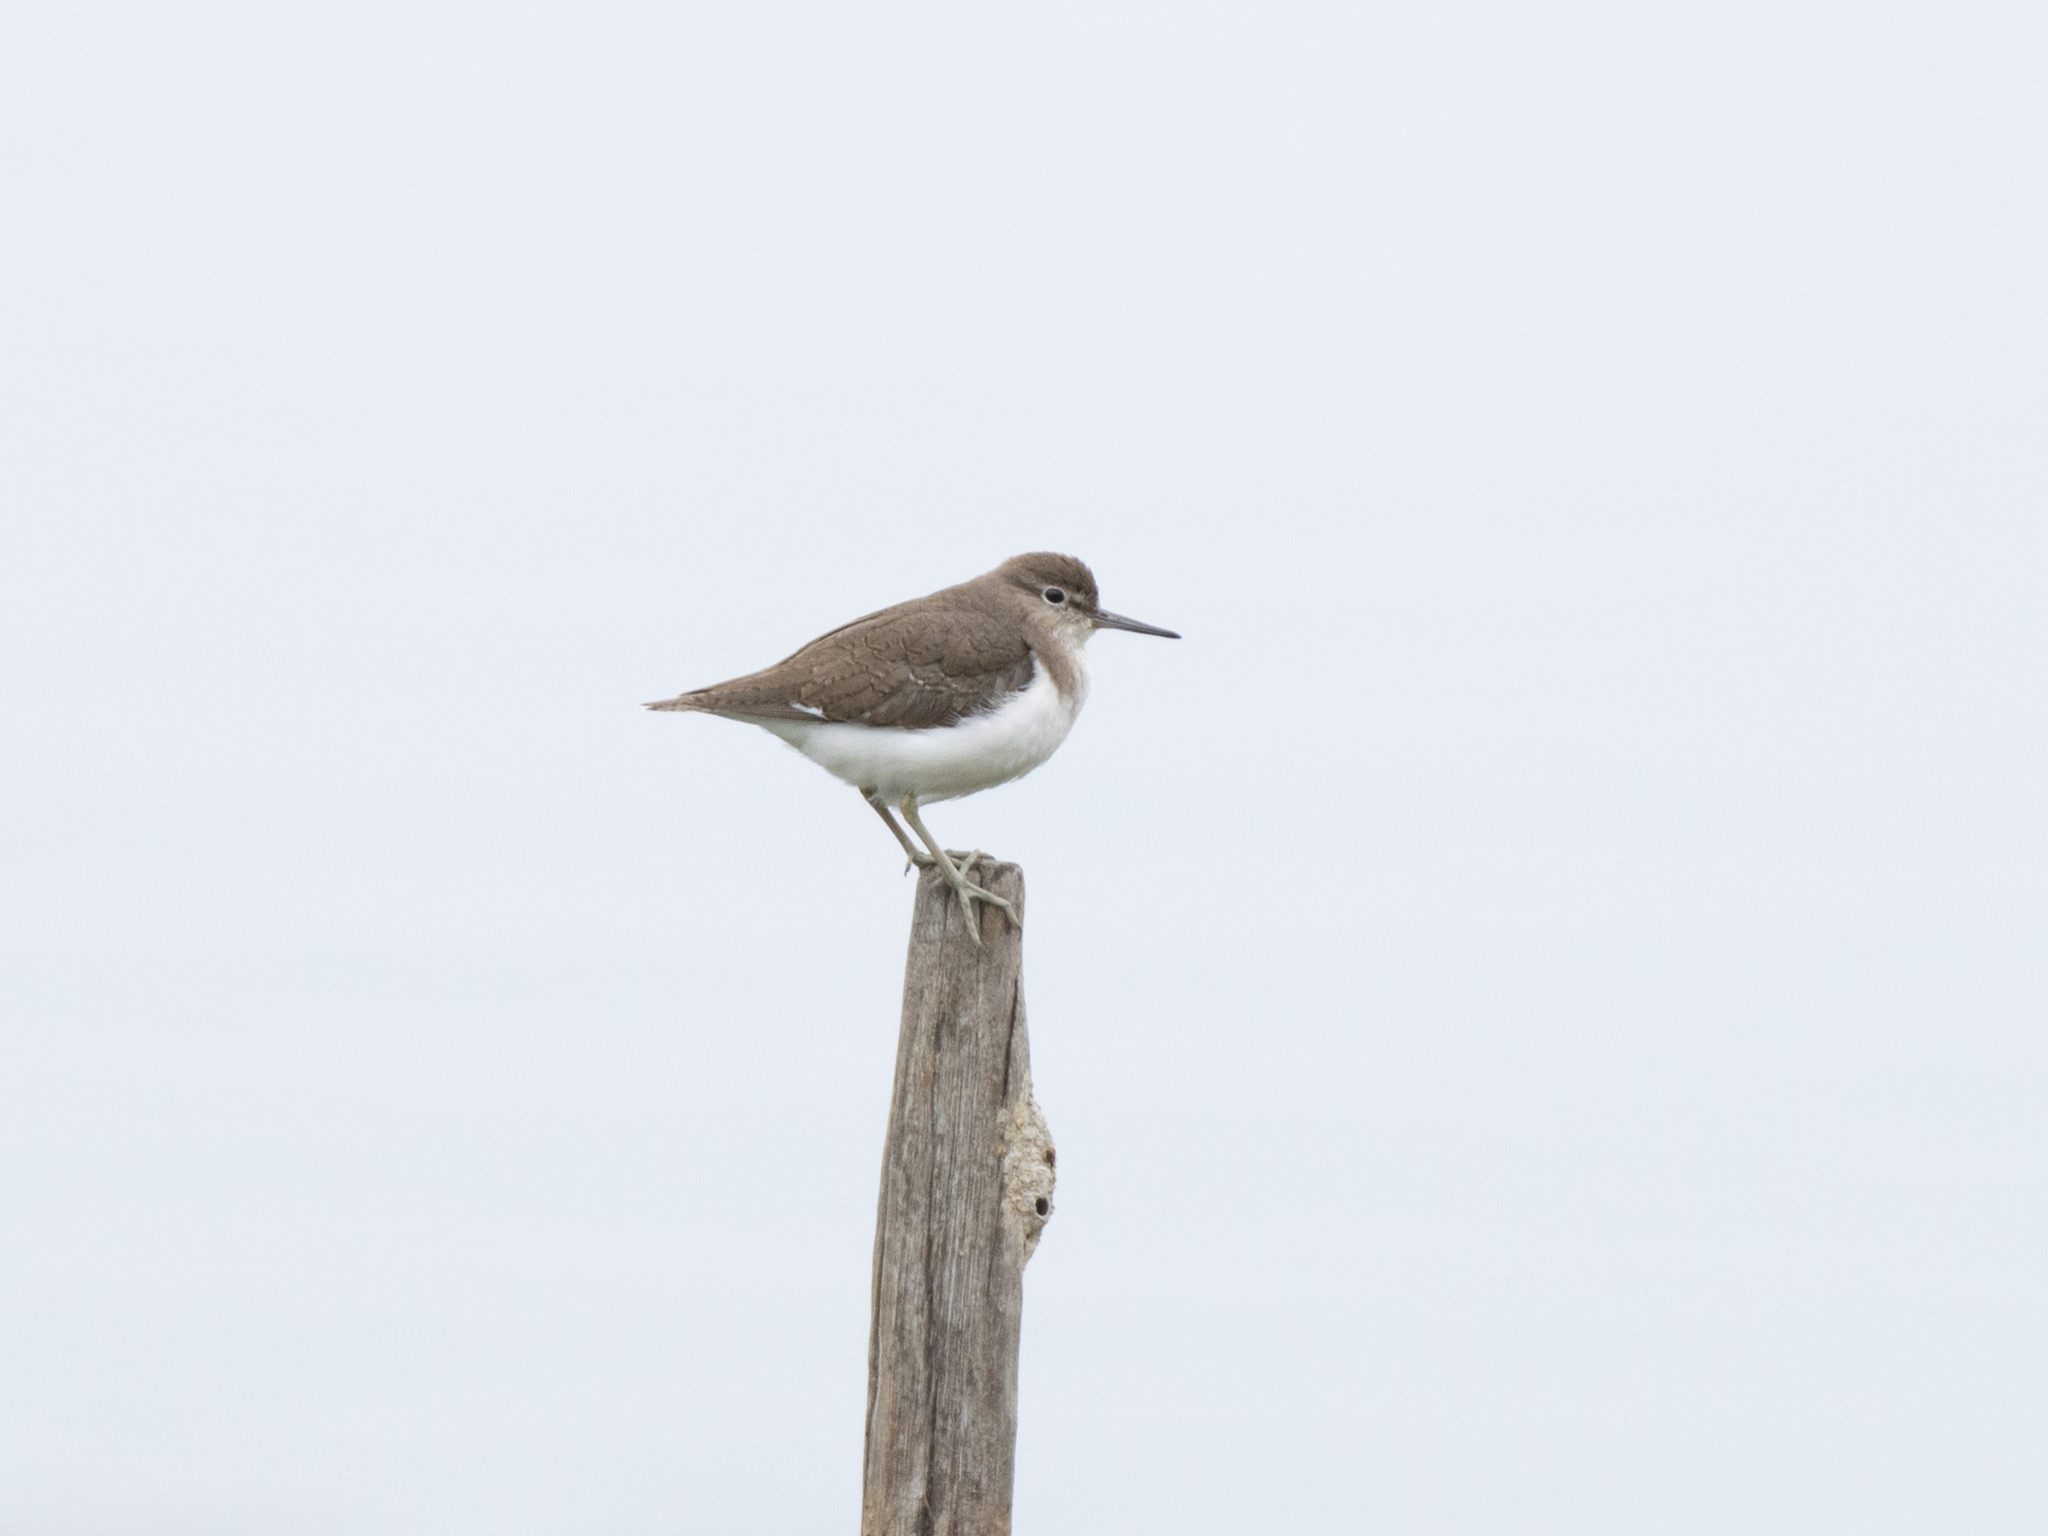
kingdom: Animalia
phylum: Chordata
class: Aves
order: Charadriiformes
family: Scolopacidae
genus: Actitis
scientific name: Actitis hypoleucos
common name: Common sandpiper
